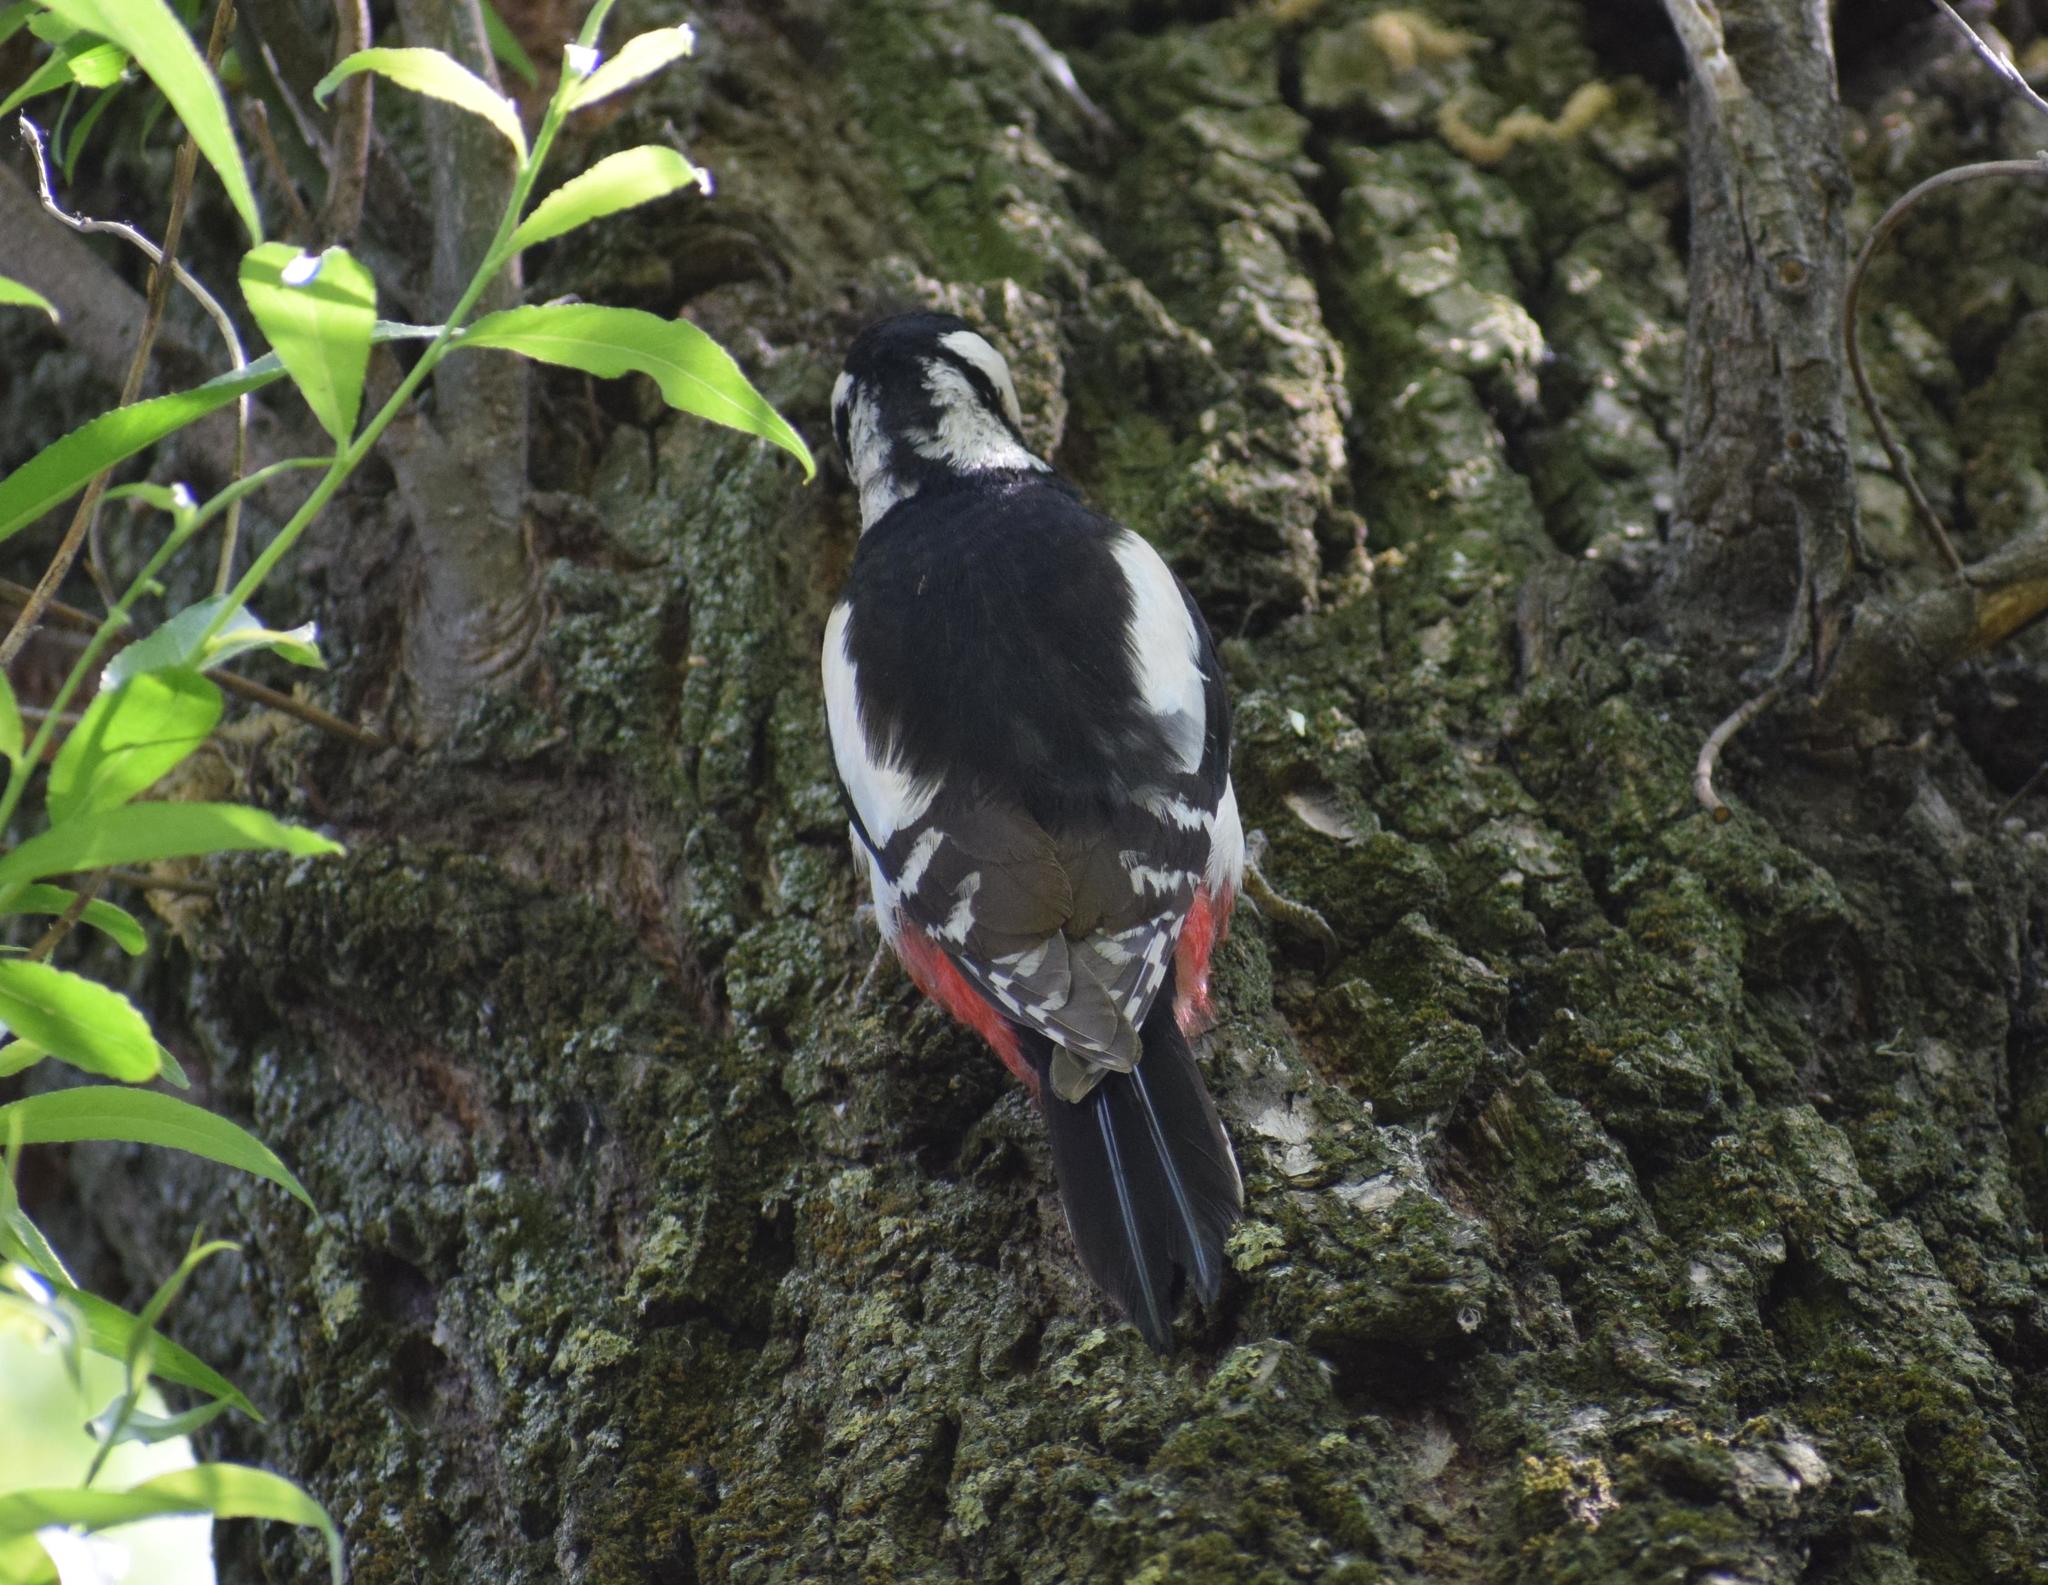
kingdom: Animalia
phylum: Chordata
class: Aves
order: Piciformes
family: Picidae
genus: Dendrocopos
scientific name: Dendrocopos major
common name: Great spotted woodpecker
